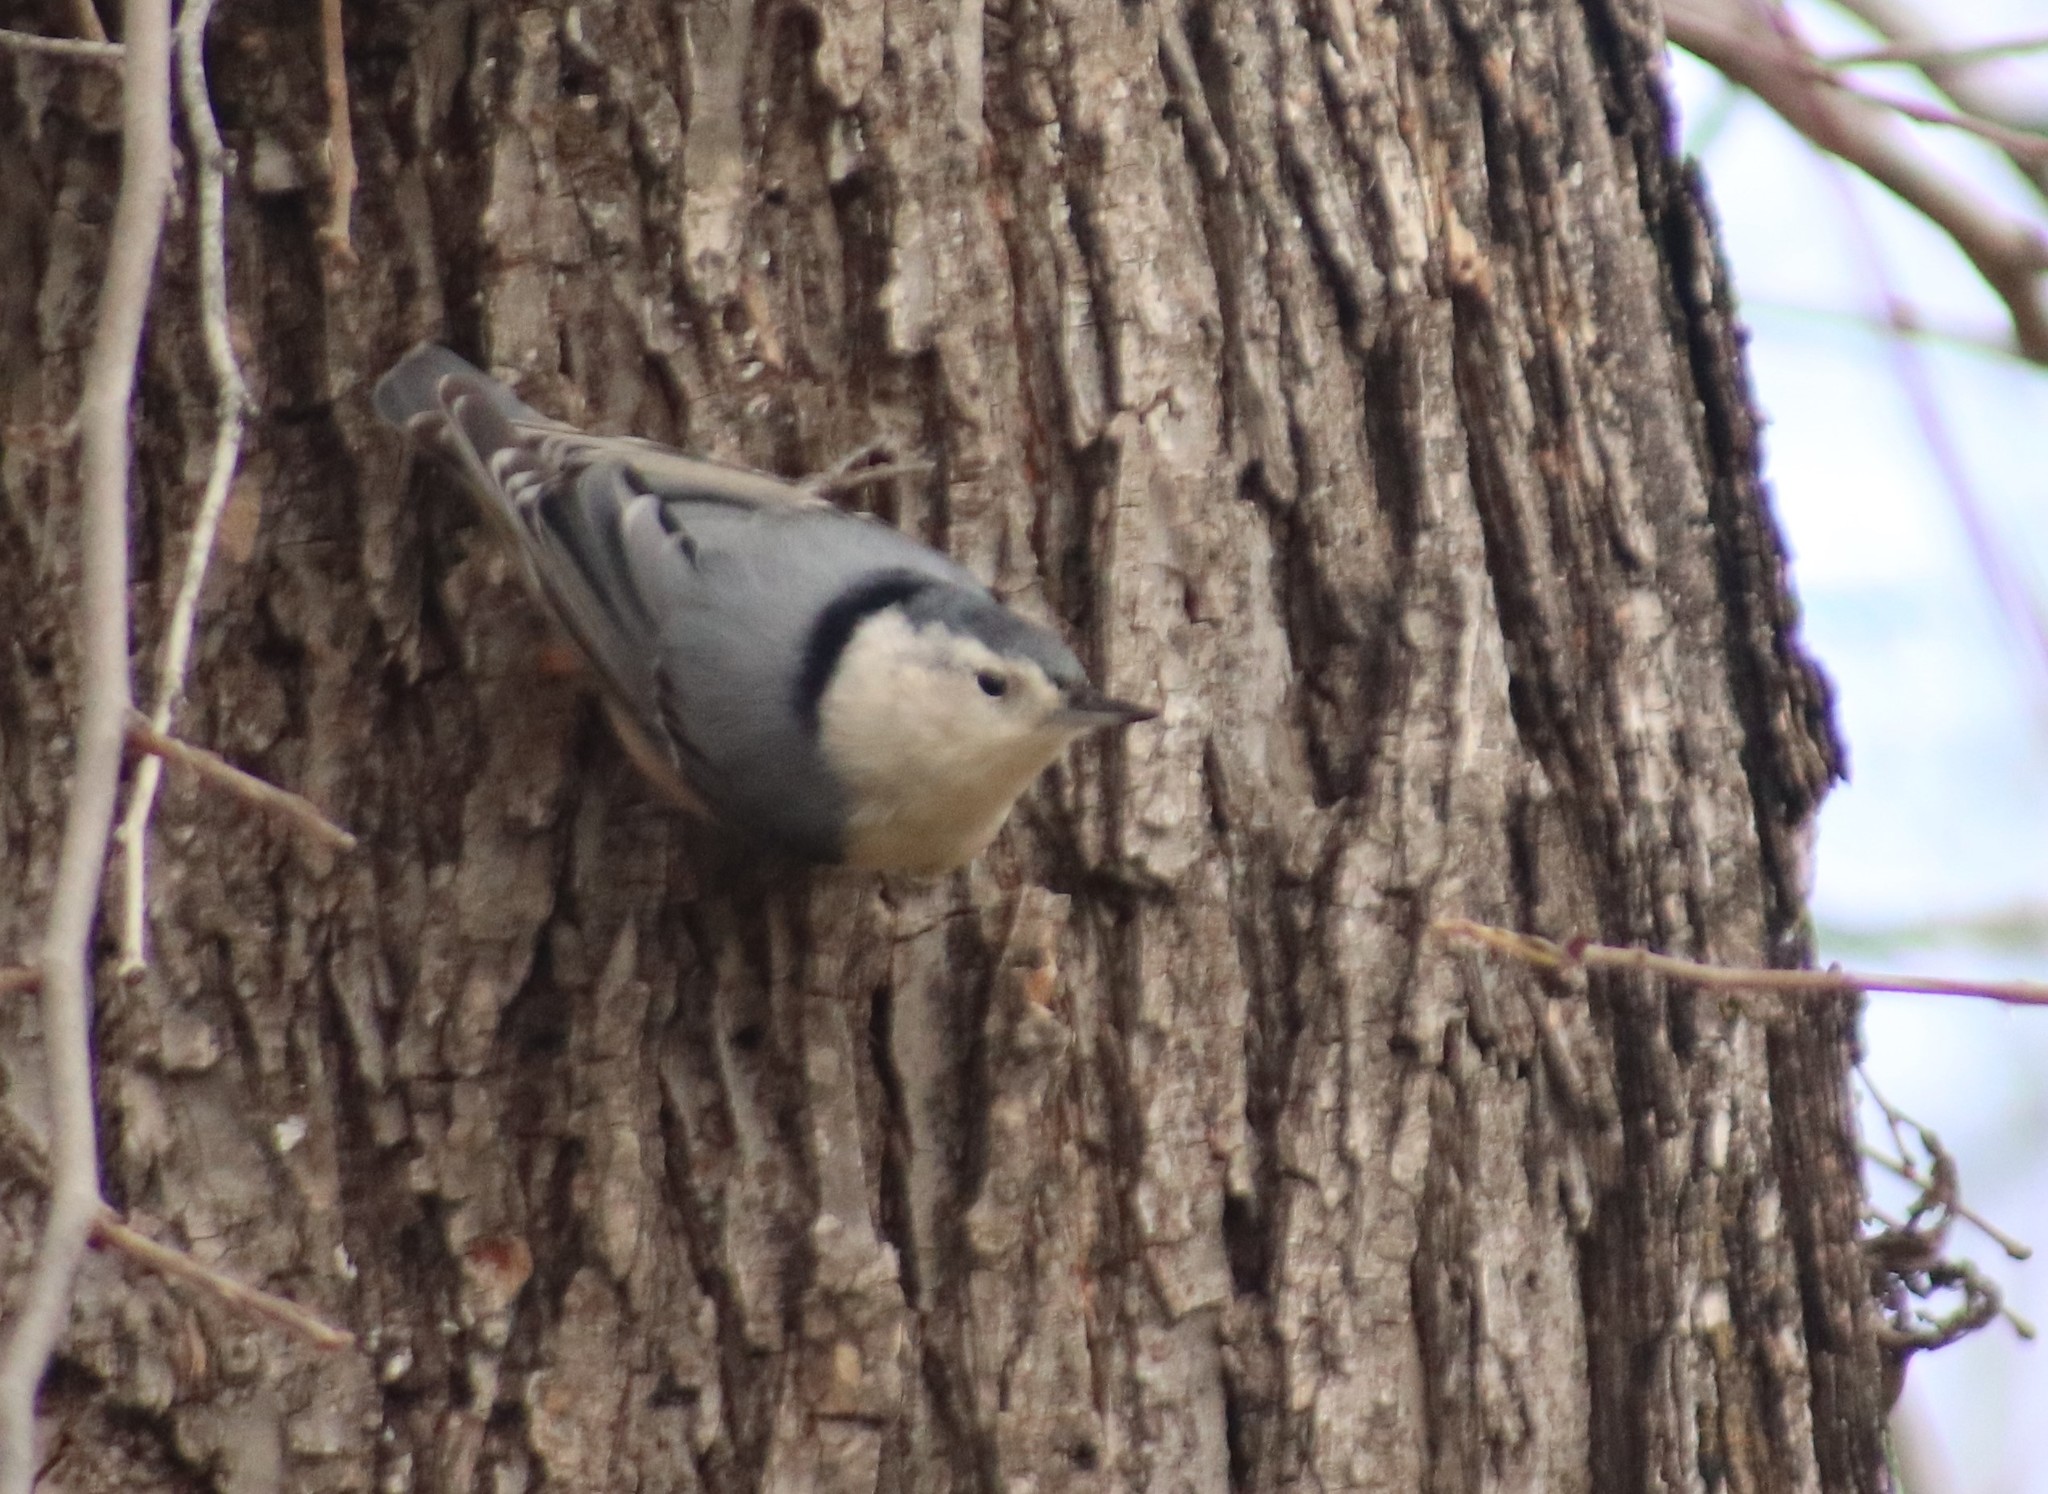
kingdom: Animalia
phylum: Chordata
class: Aves
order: Passeriformes
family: Sittidae
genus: Sitta
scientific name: Sitta carolinensis
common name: White-breasted nuthatch
